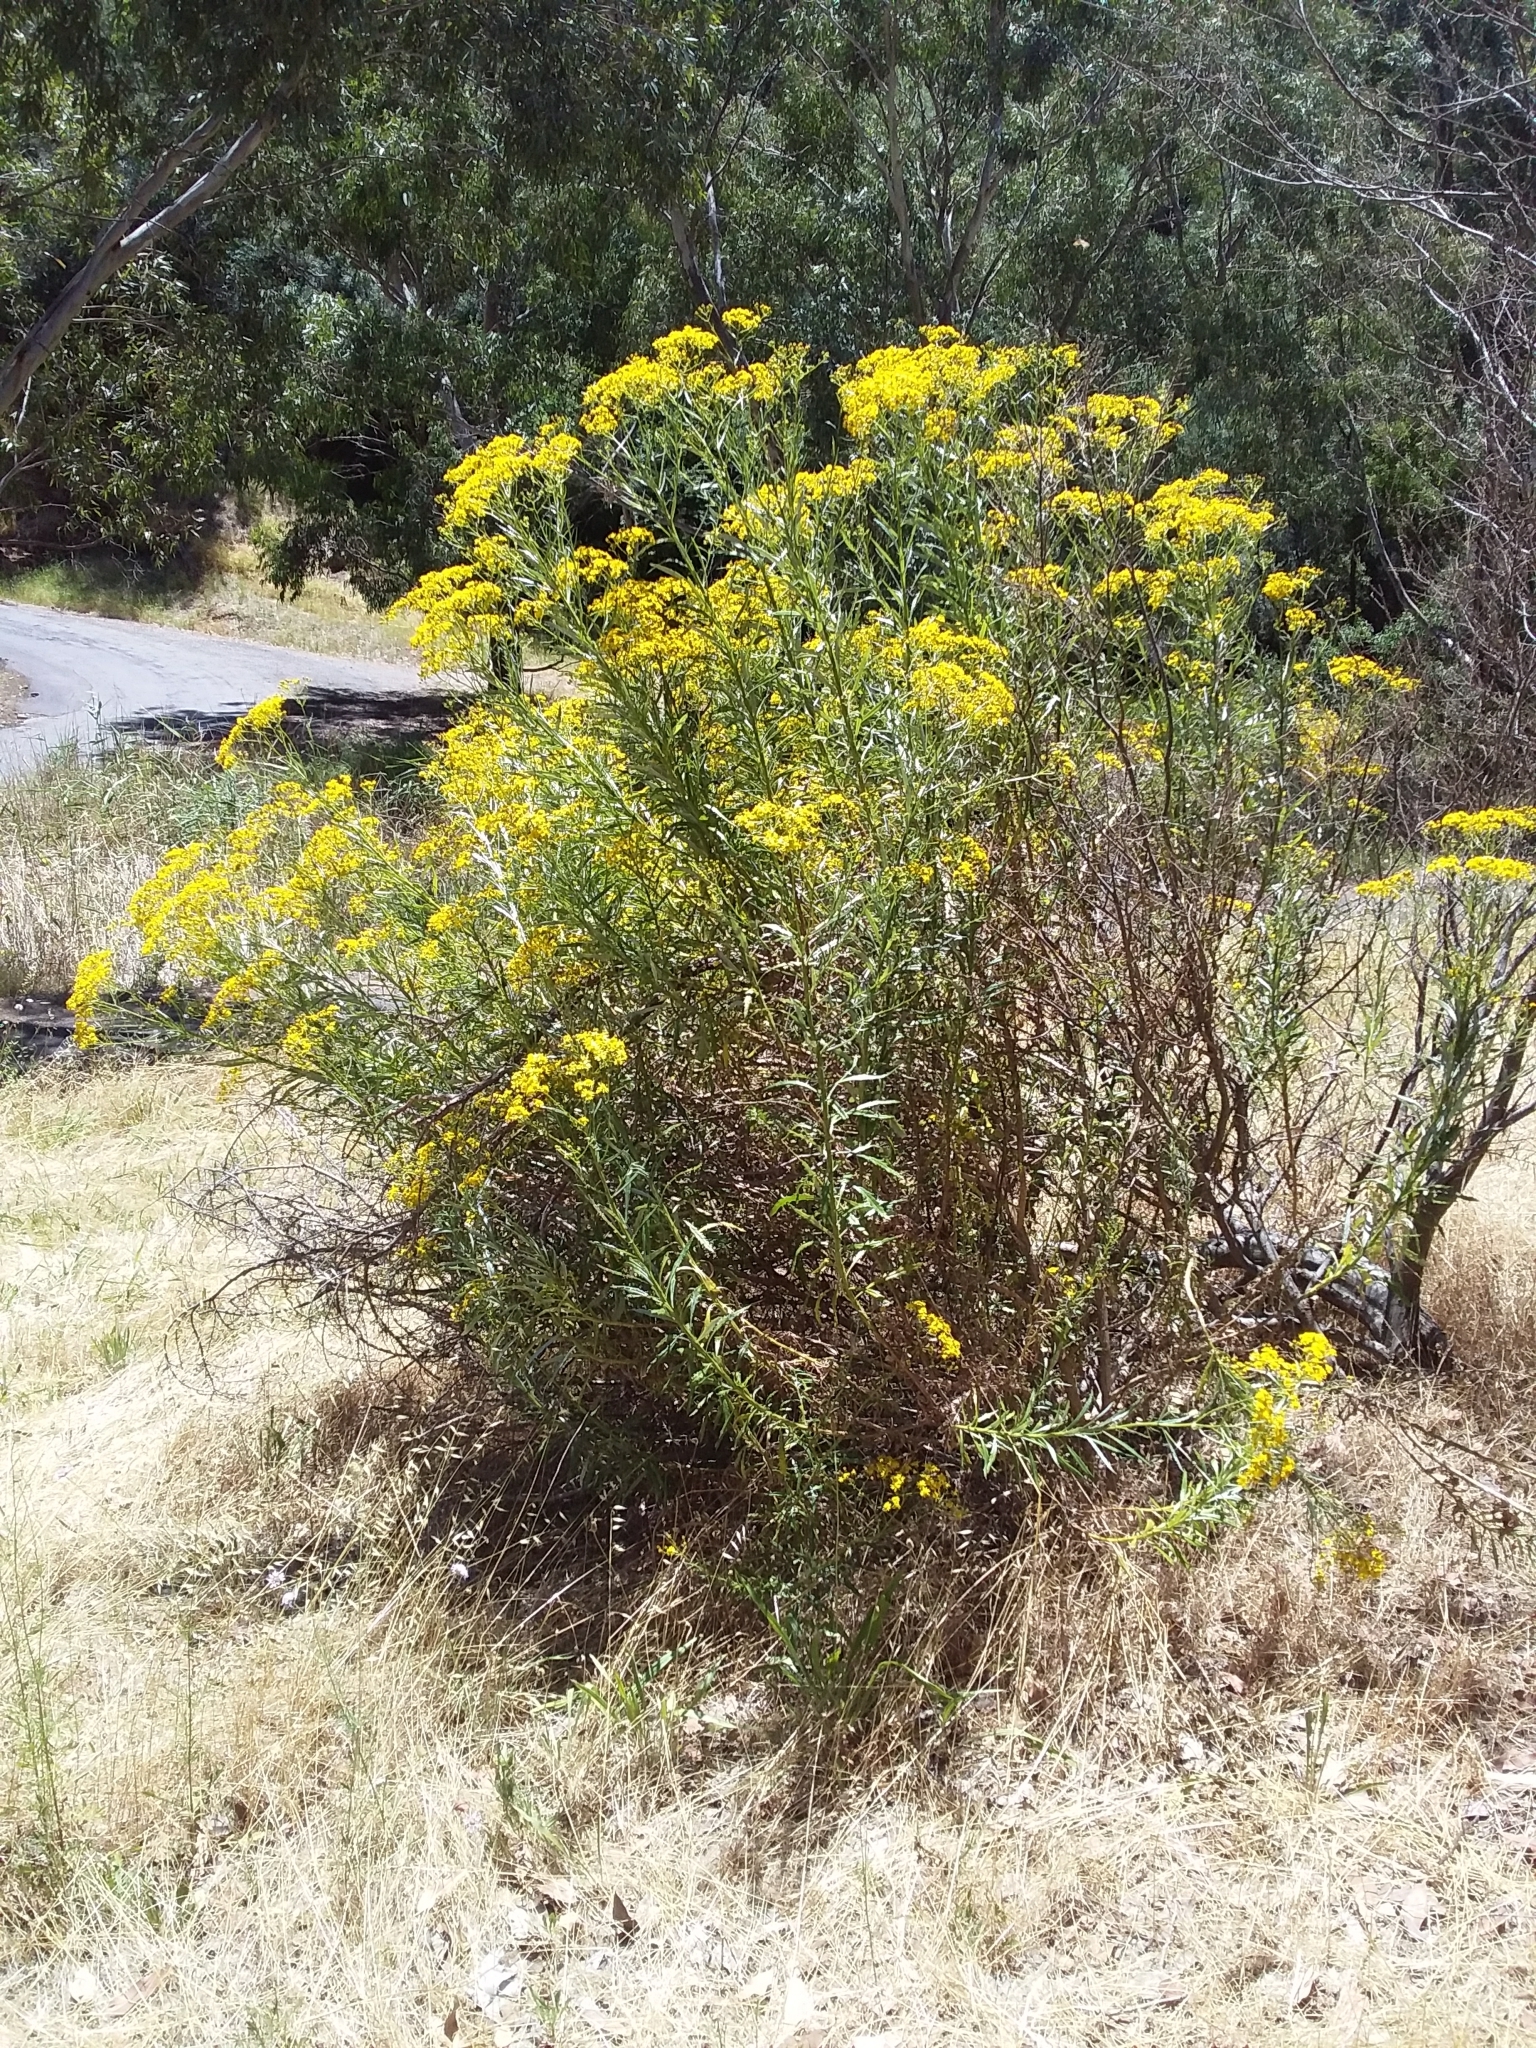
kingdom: Plantae
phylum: Tracheophyta
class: Magnoliopsida
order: Asterales
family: Asteraceae
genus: Senecio
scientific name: Senecio pterophorus
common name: Shoddy ragwort
